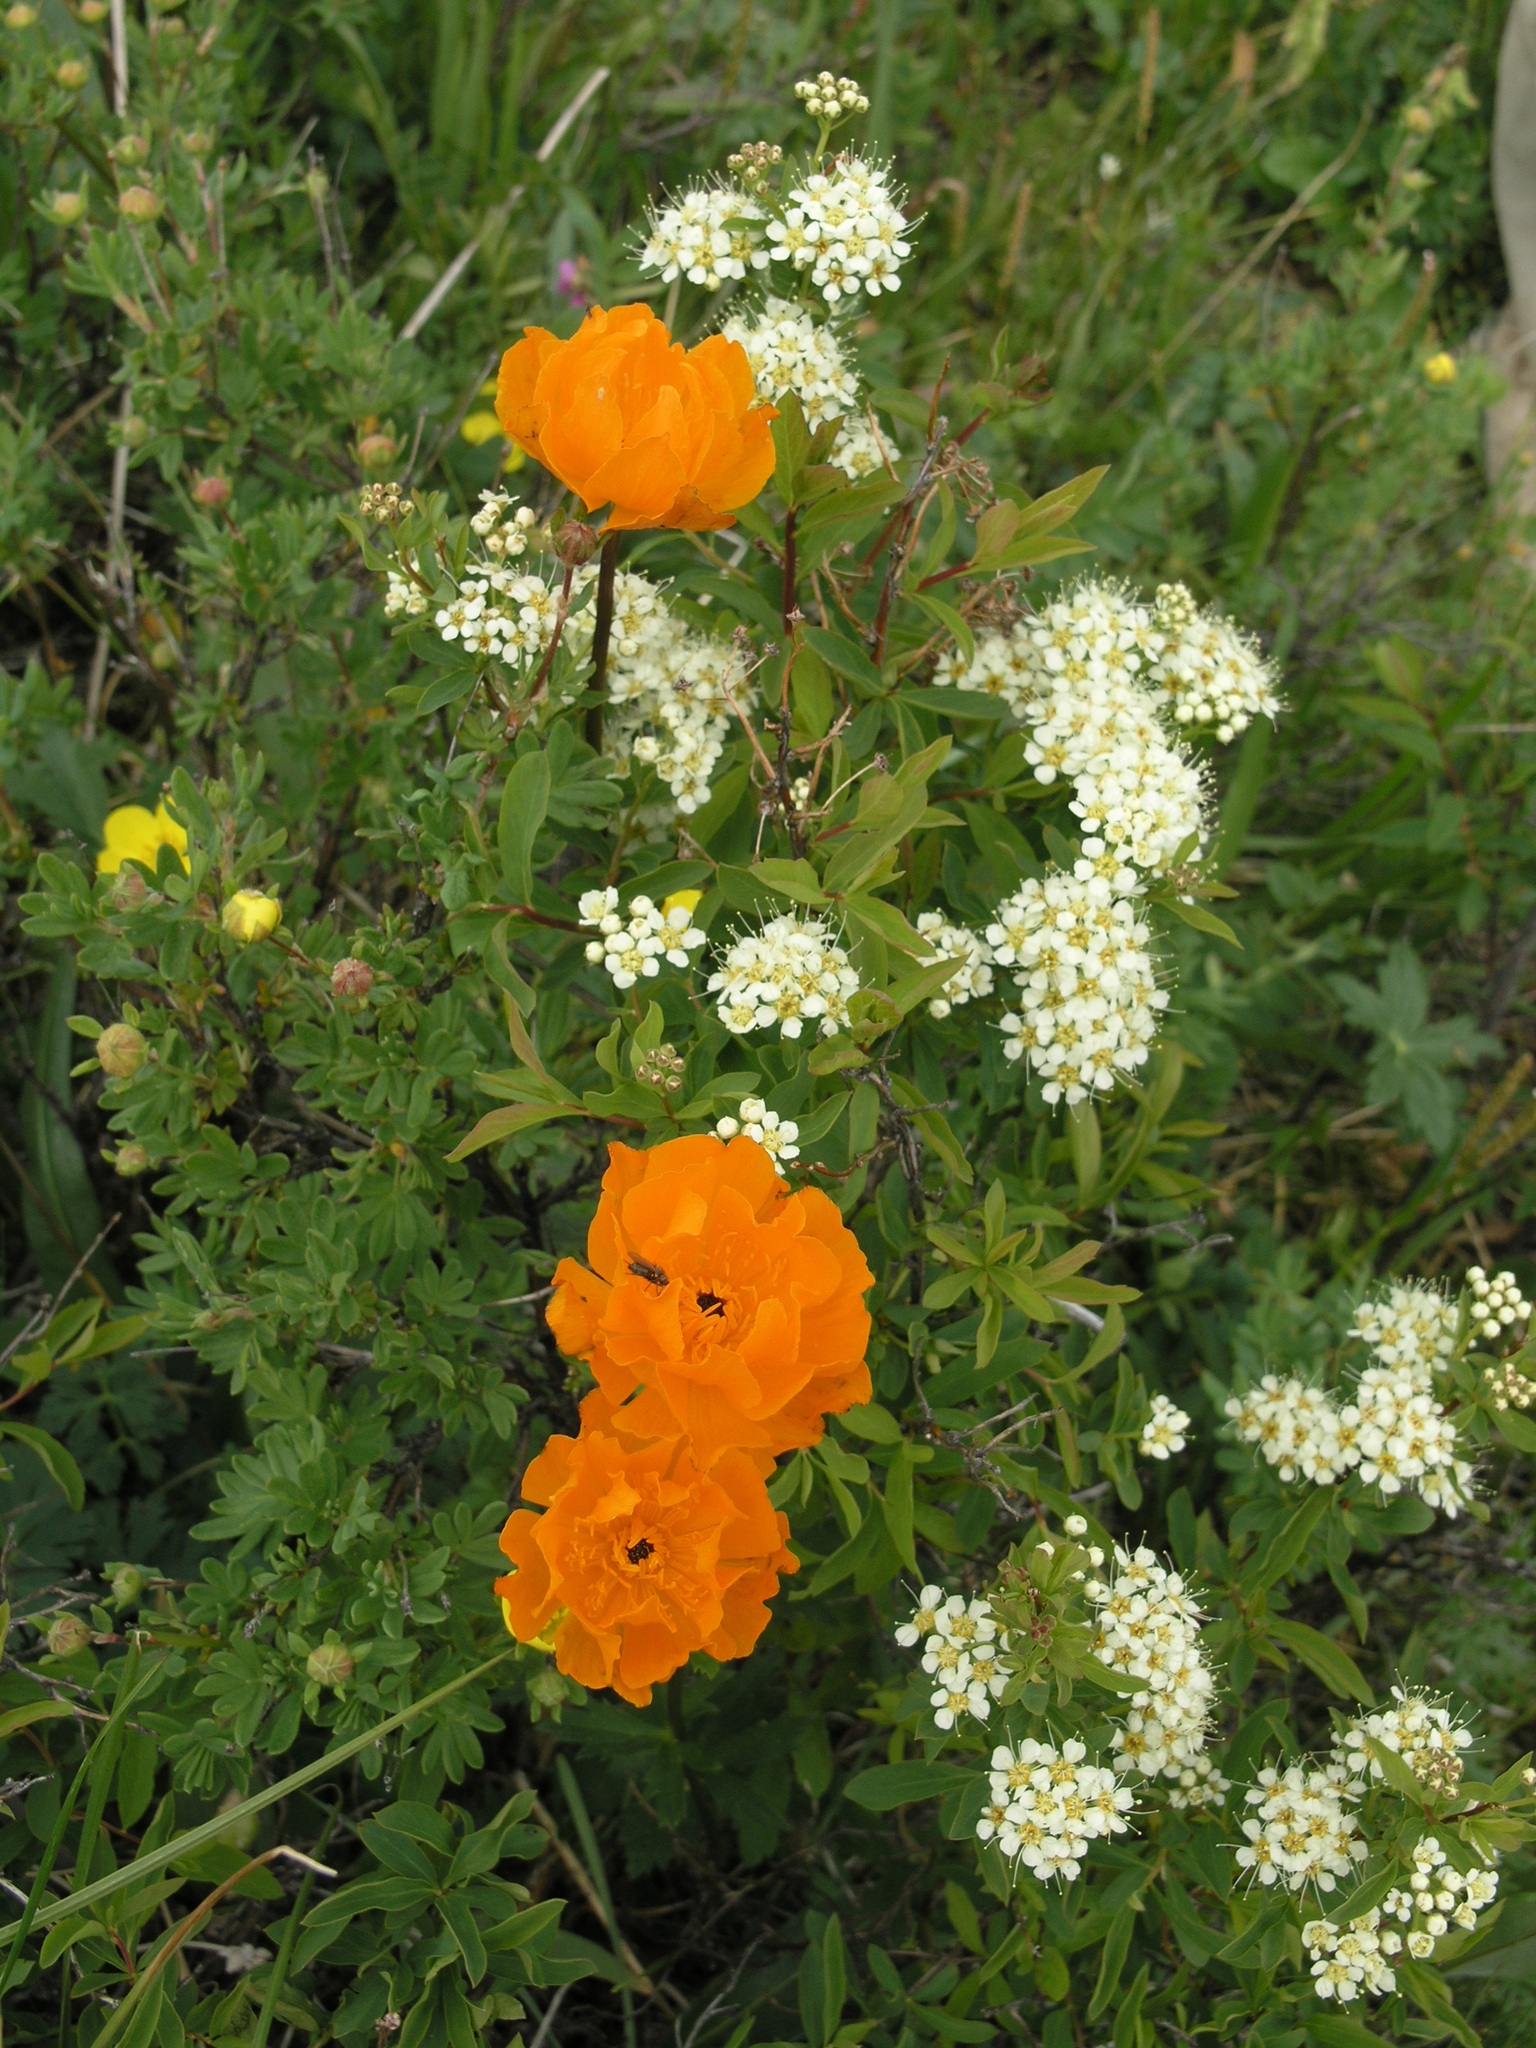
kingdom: Plantae
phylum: Tracheophyta
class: Magnoliopsida
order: Rosales
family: Rosaceae
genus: Spiraea
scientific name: Spiraea alpina
